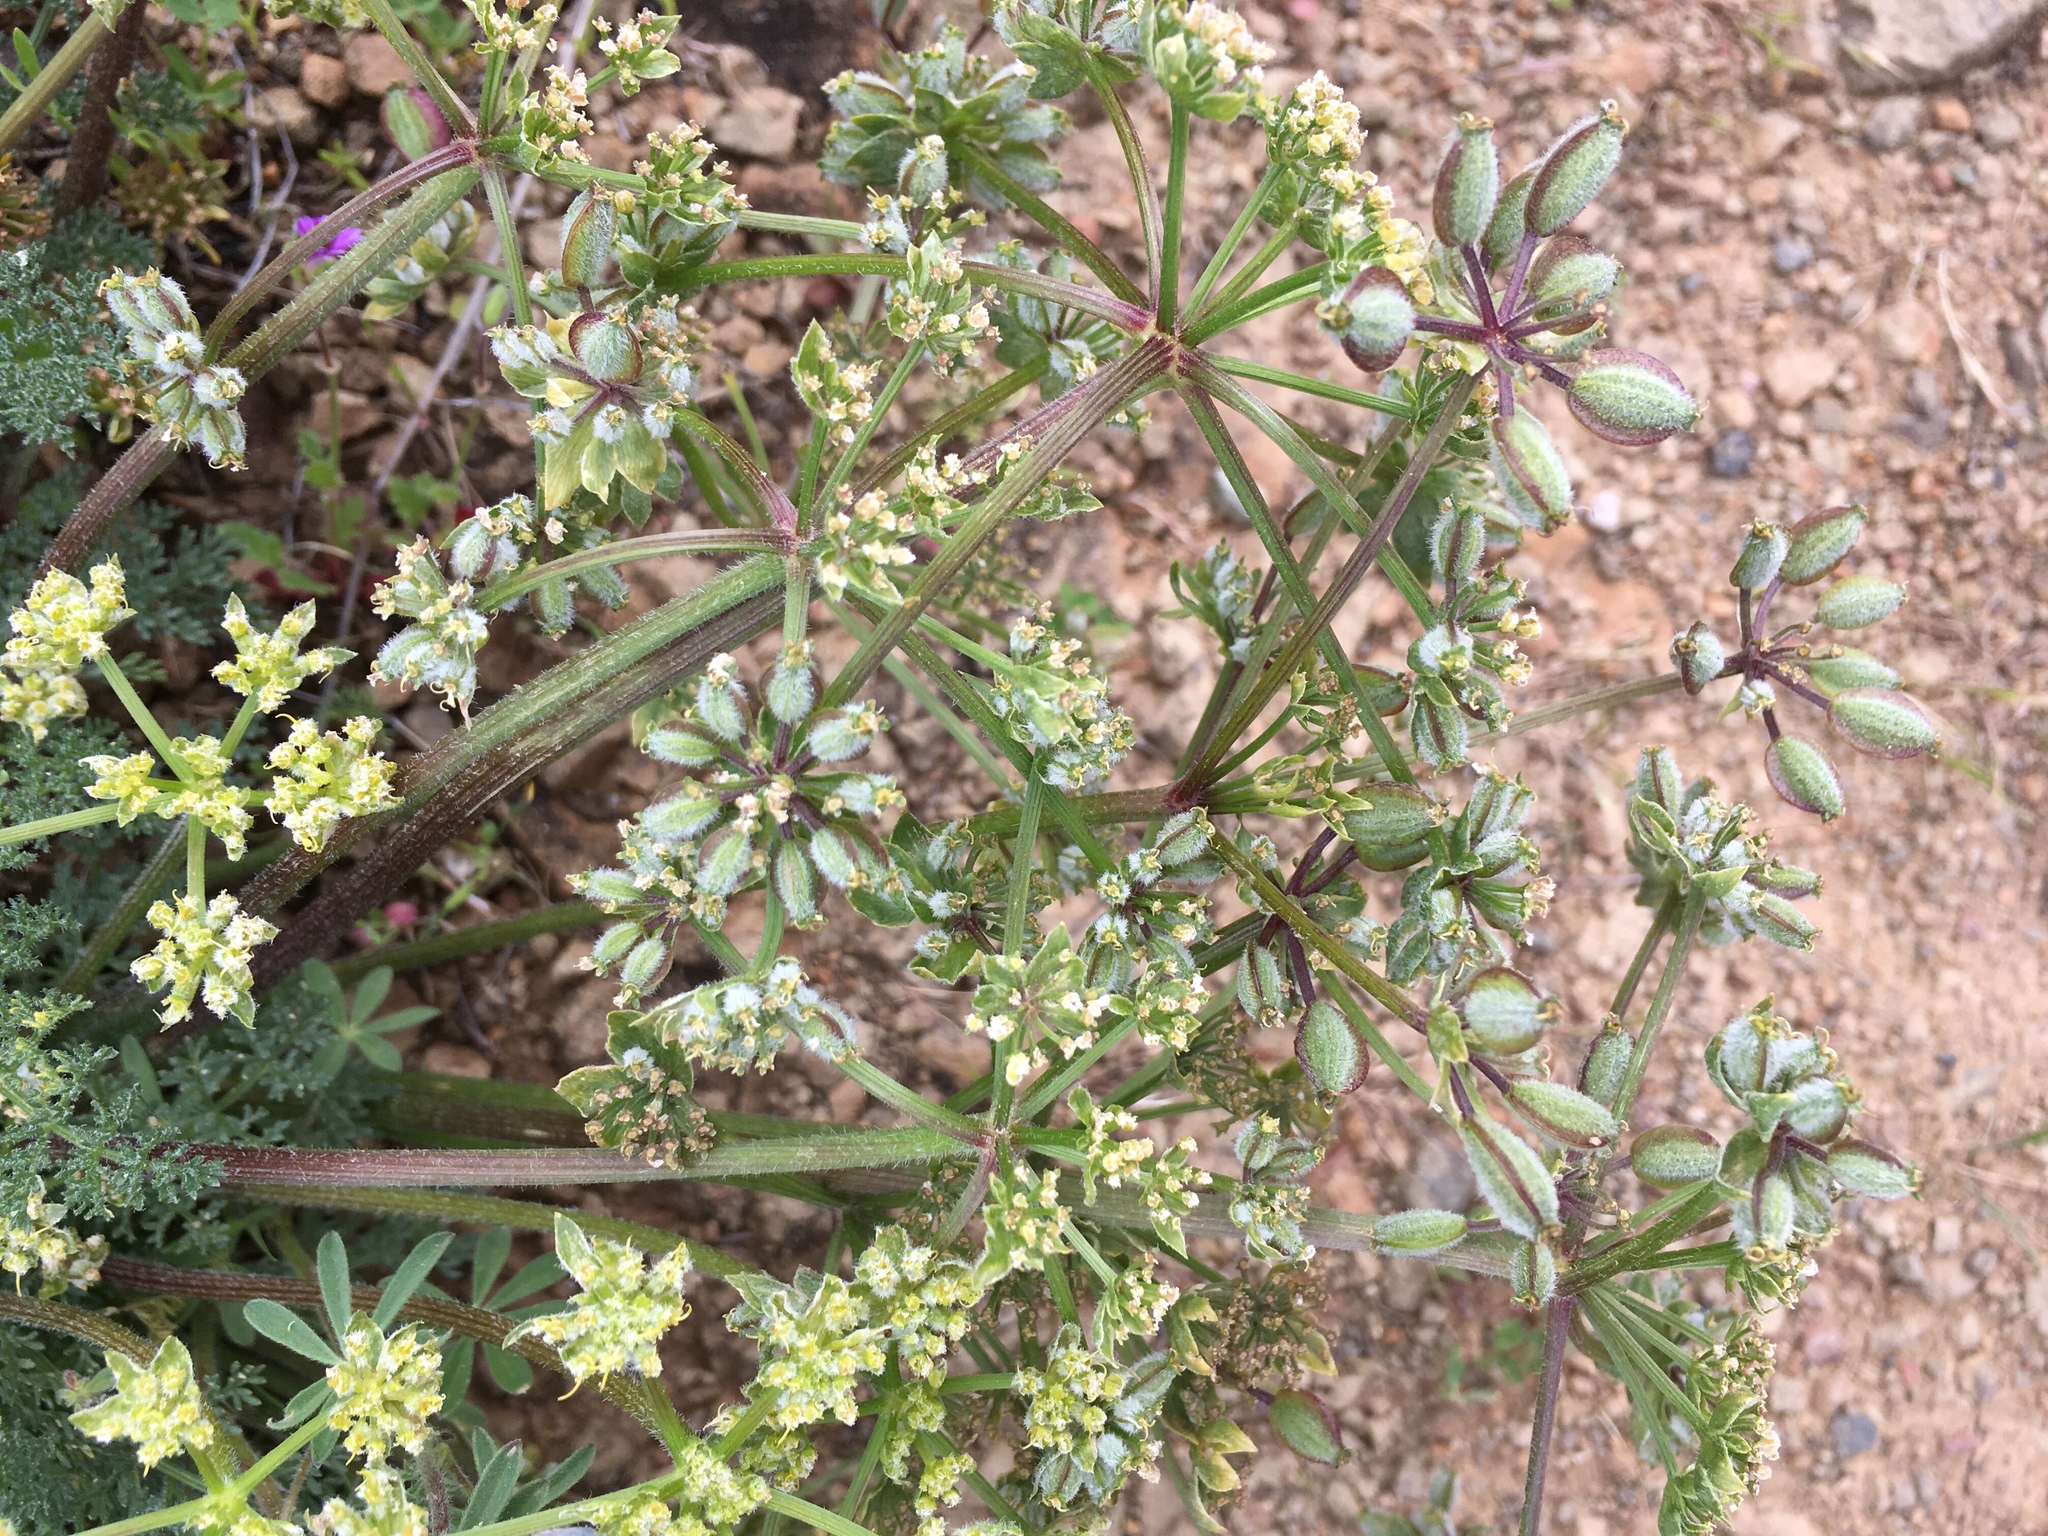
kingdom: Plantae
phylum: Tracheophyta
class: Magnoliopsida
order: Apiales
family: Apiaceae
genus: Lomatium
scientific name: Lomatium dasycarpum
